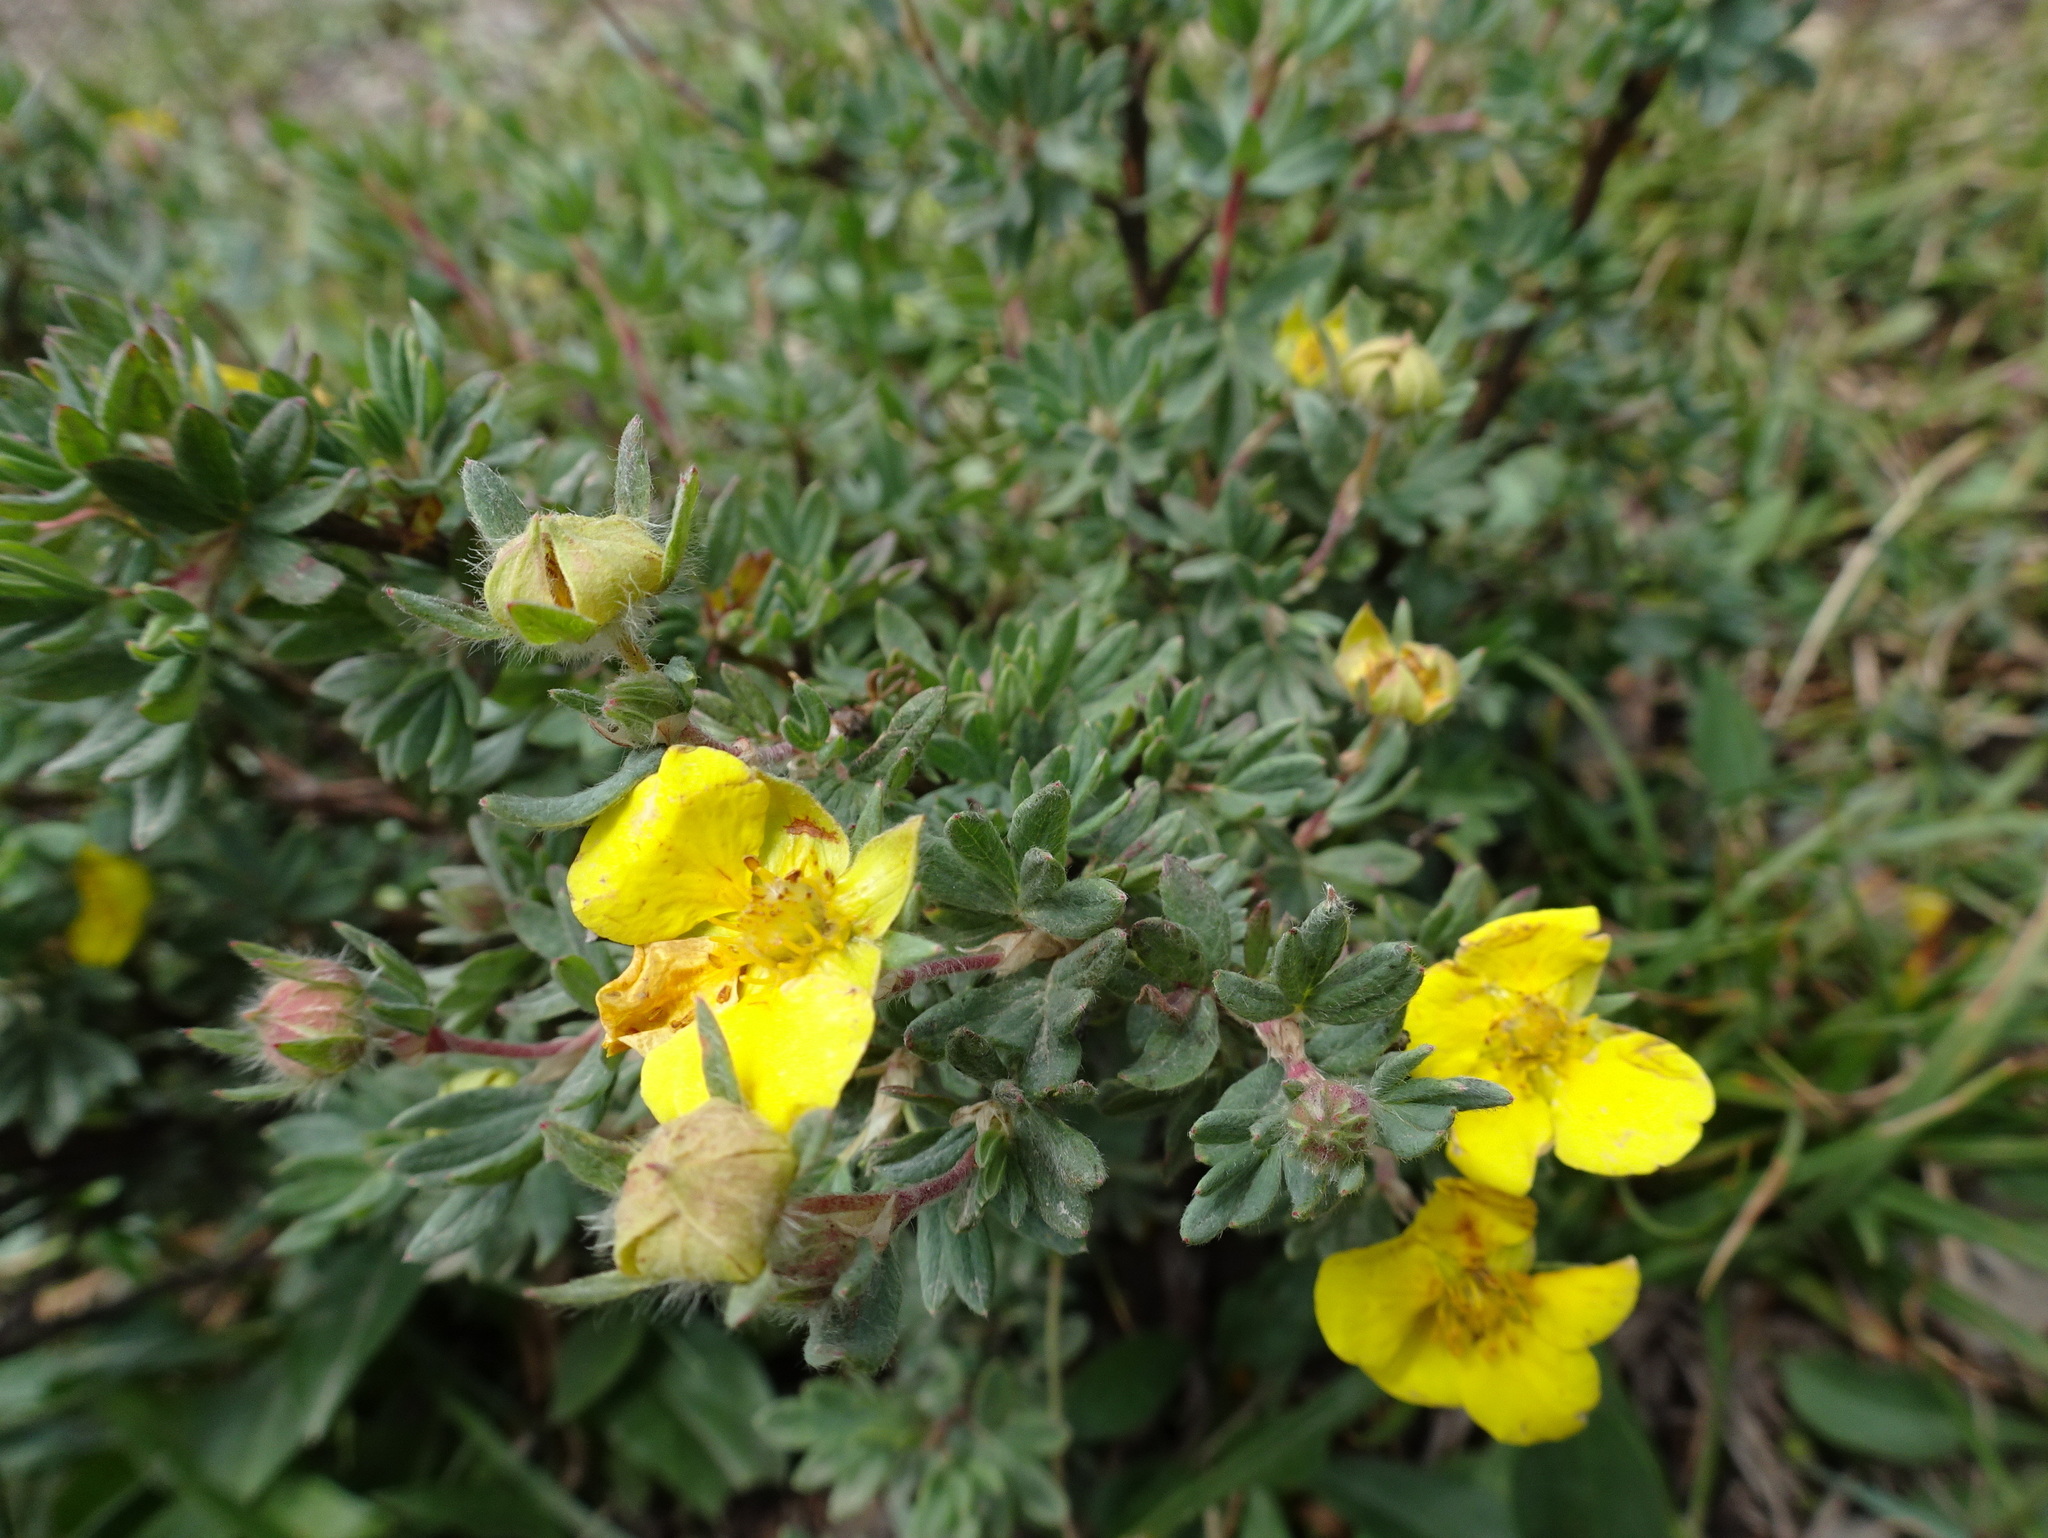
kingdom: Plantae
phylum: Tracheophyta
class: Magnoliopsida
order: Rosales
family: Rosaceae
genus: Dasiphora
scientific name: Dasiphora fruticosa
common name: Shrubby cinquefoil
